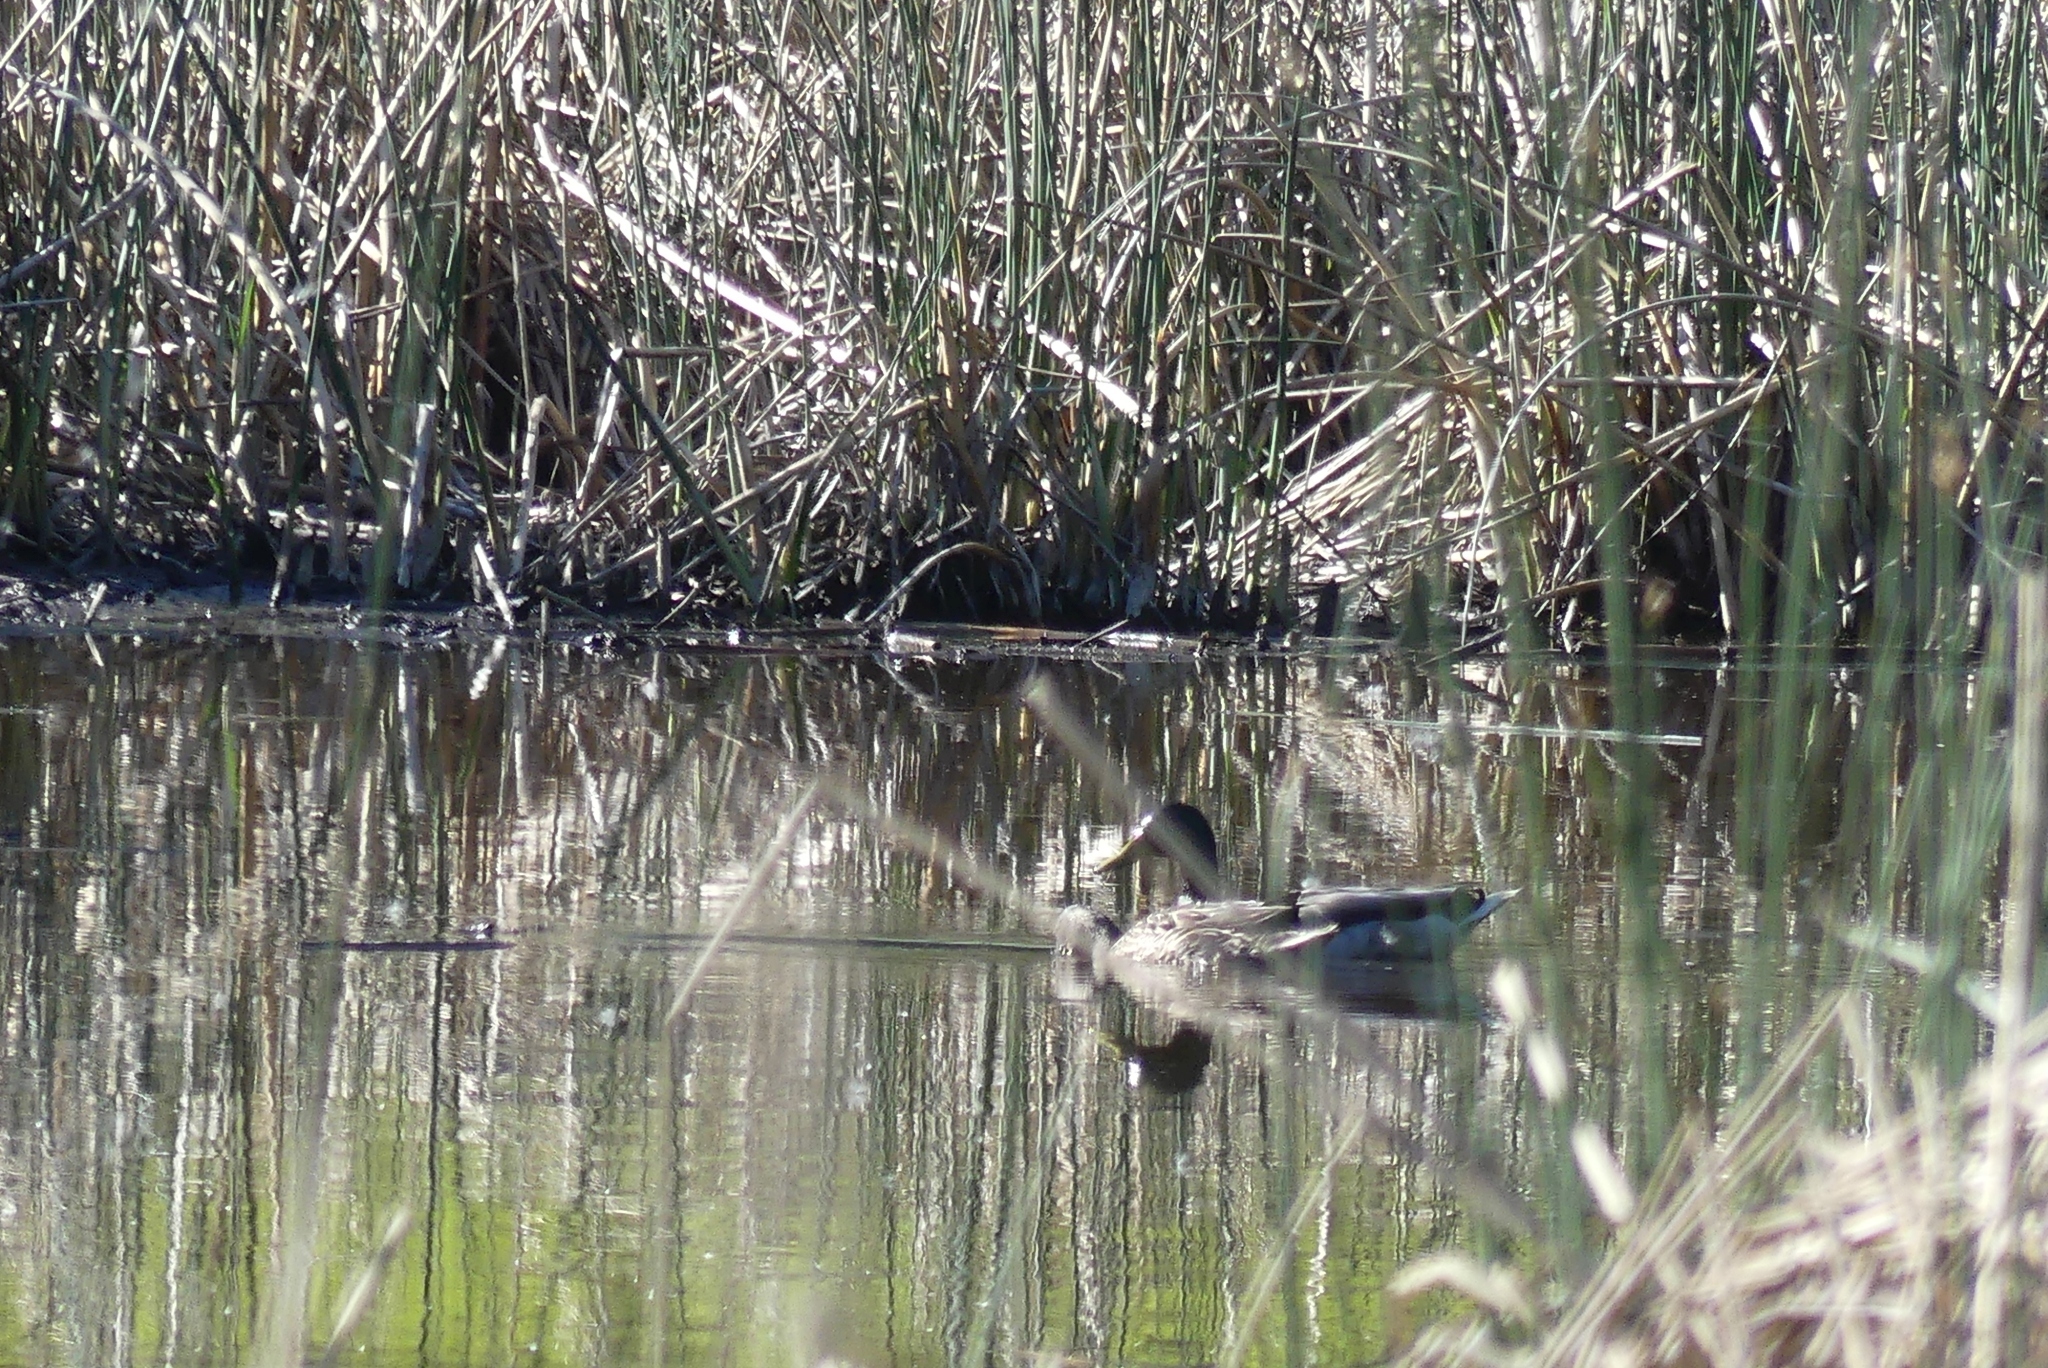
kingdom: Animalia
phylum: Chordata
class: Aves
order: Anseriformes
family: Anatidae
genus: Anas
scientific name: Anas platyrhynchos
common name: Mallard
